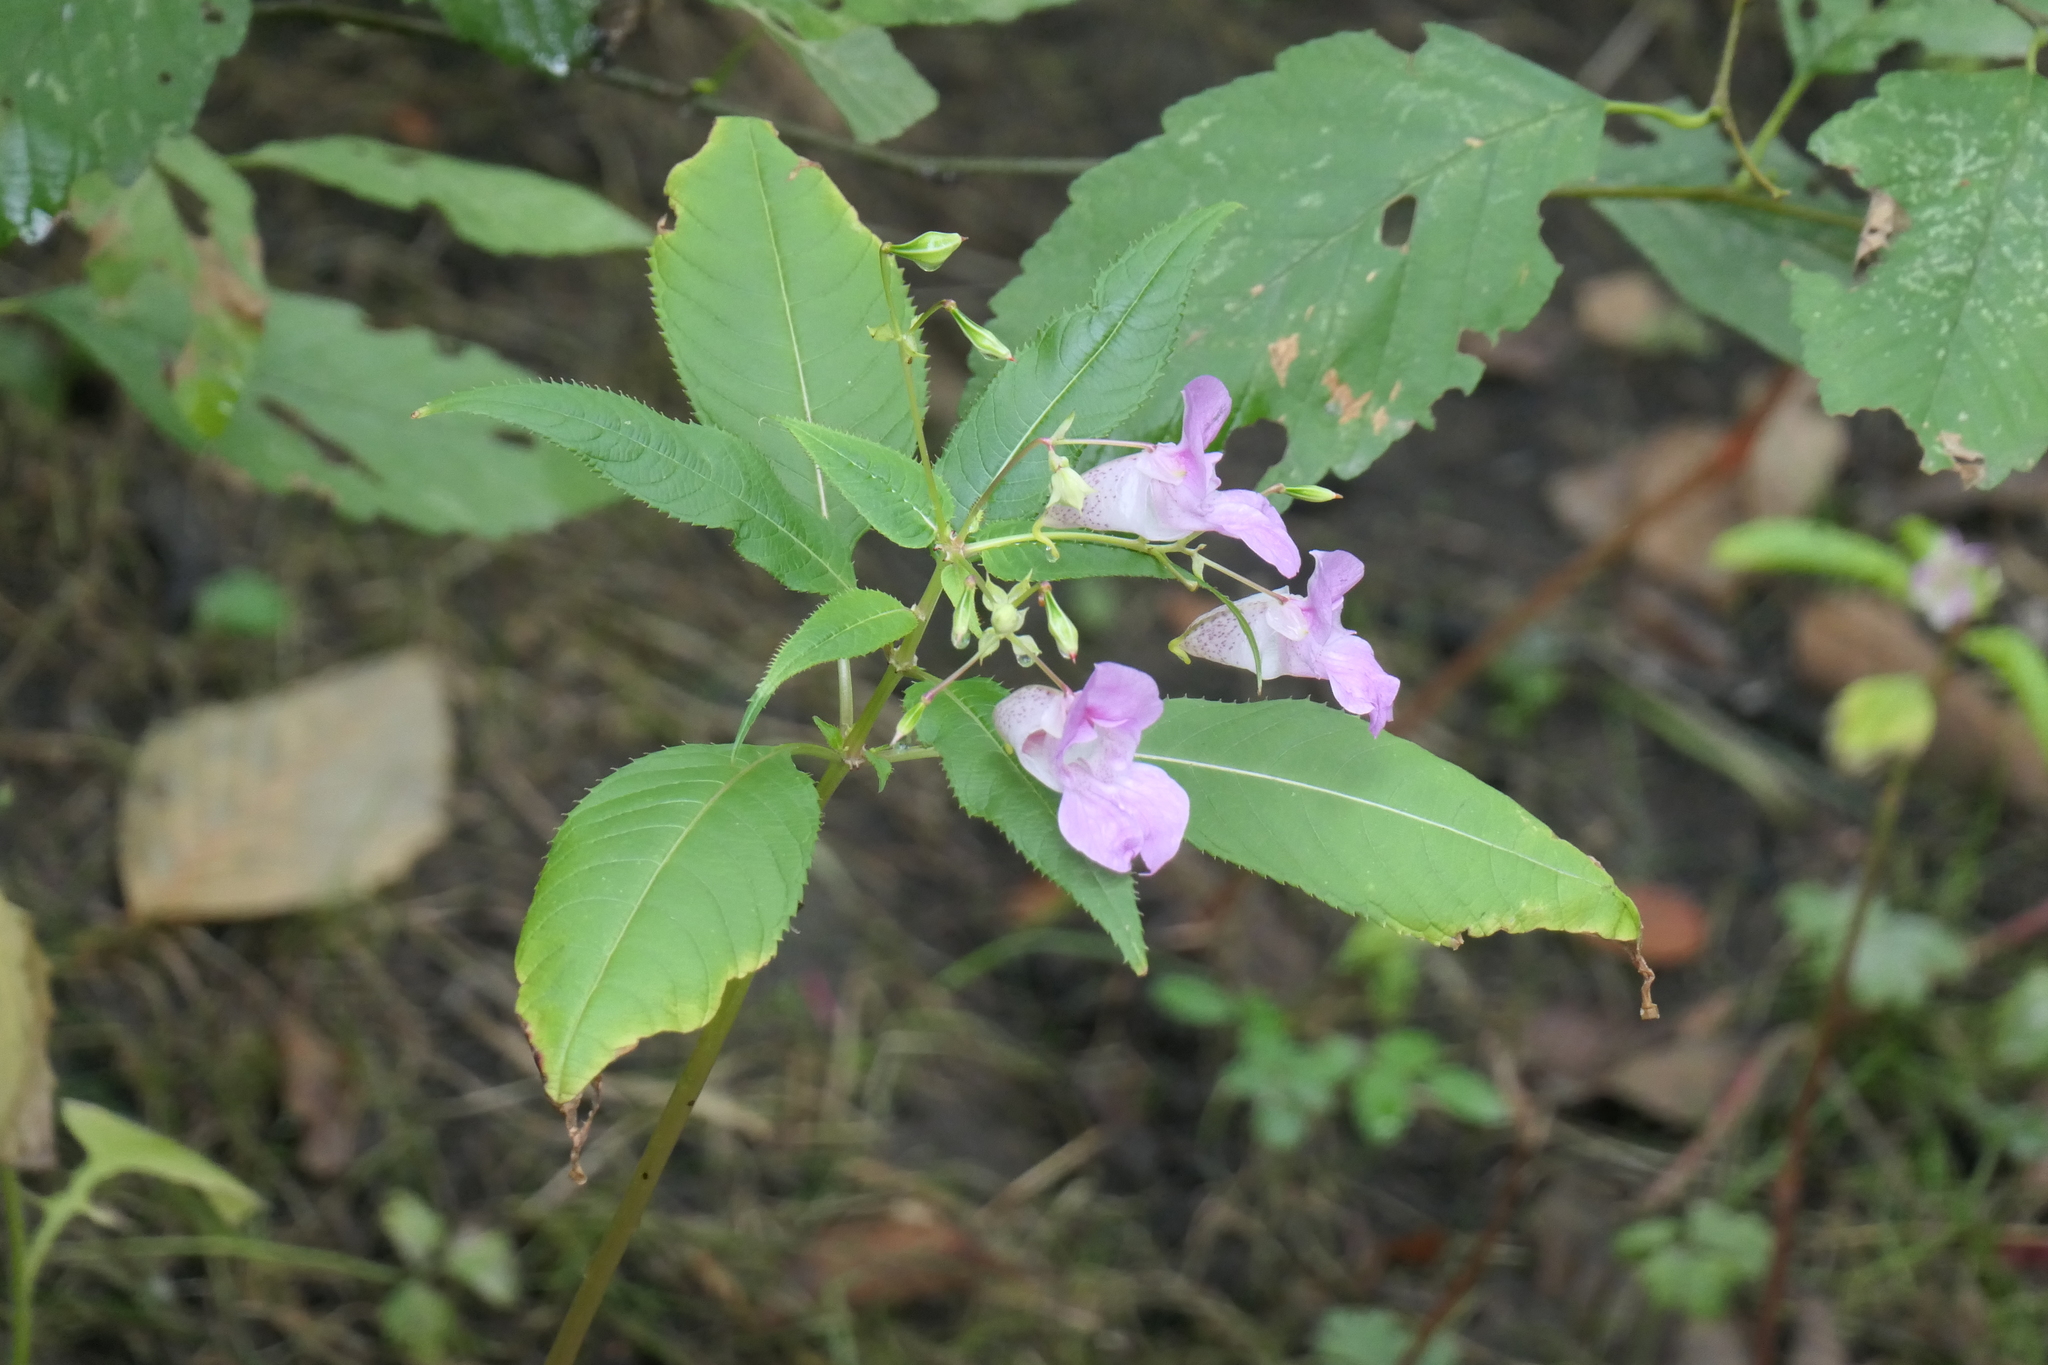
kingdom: Plantae
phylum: Tracheophyta
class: Magnoliopsida
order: Ericales
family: Balsaminaceae
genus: Impatiens
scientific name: Impatiens glandulifera
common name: Himalayan balsam
